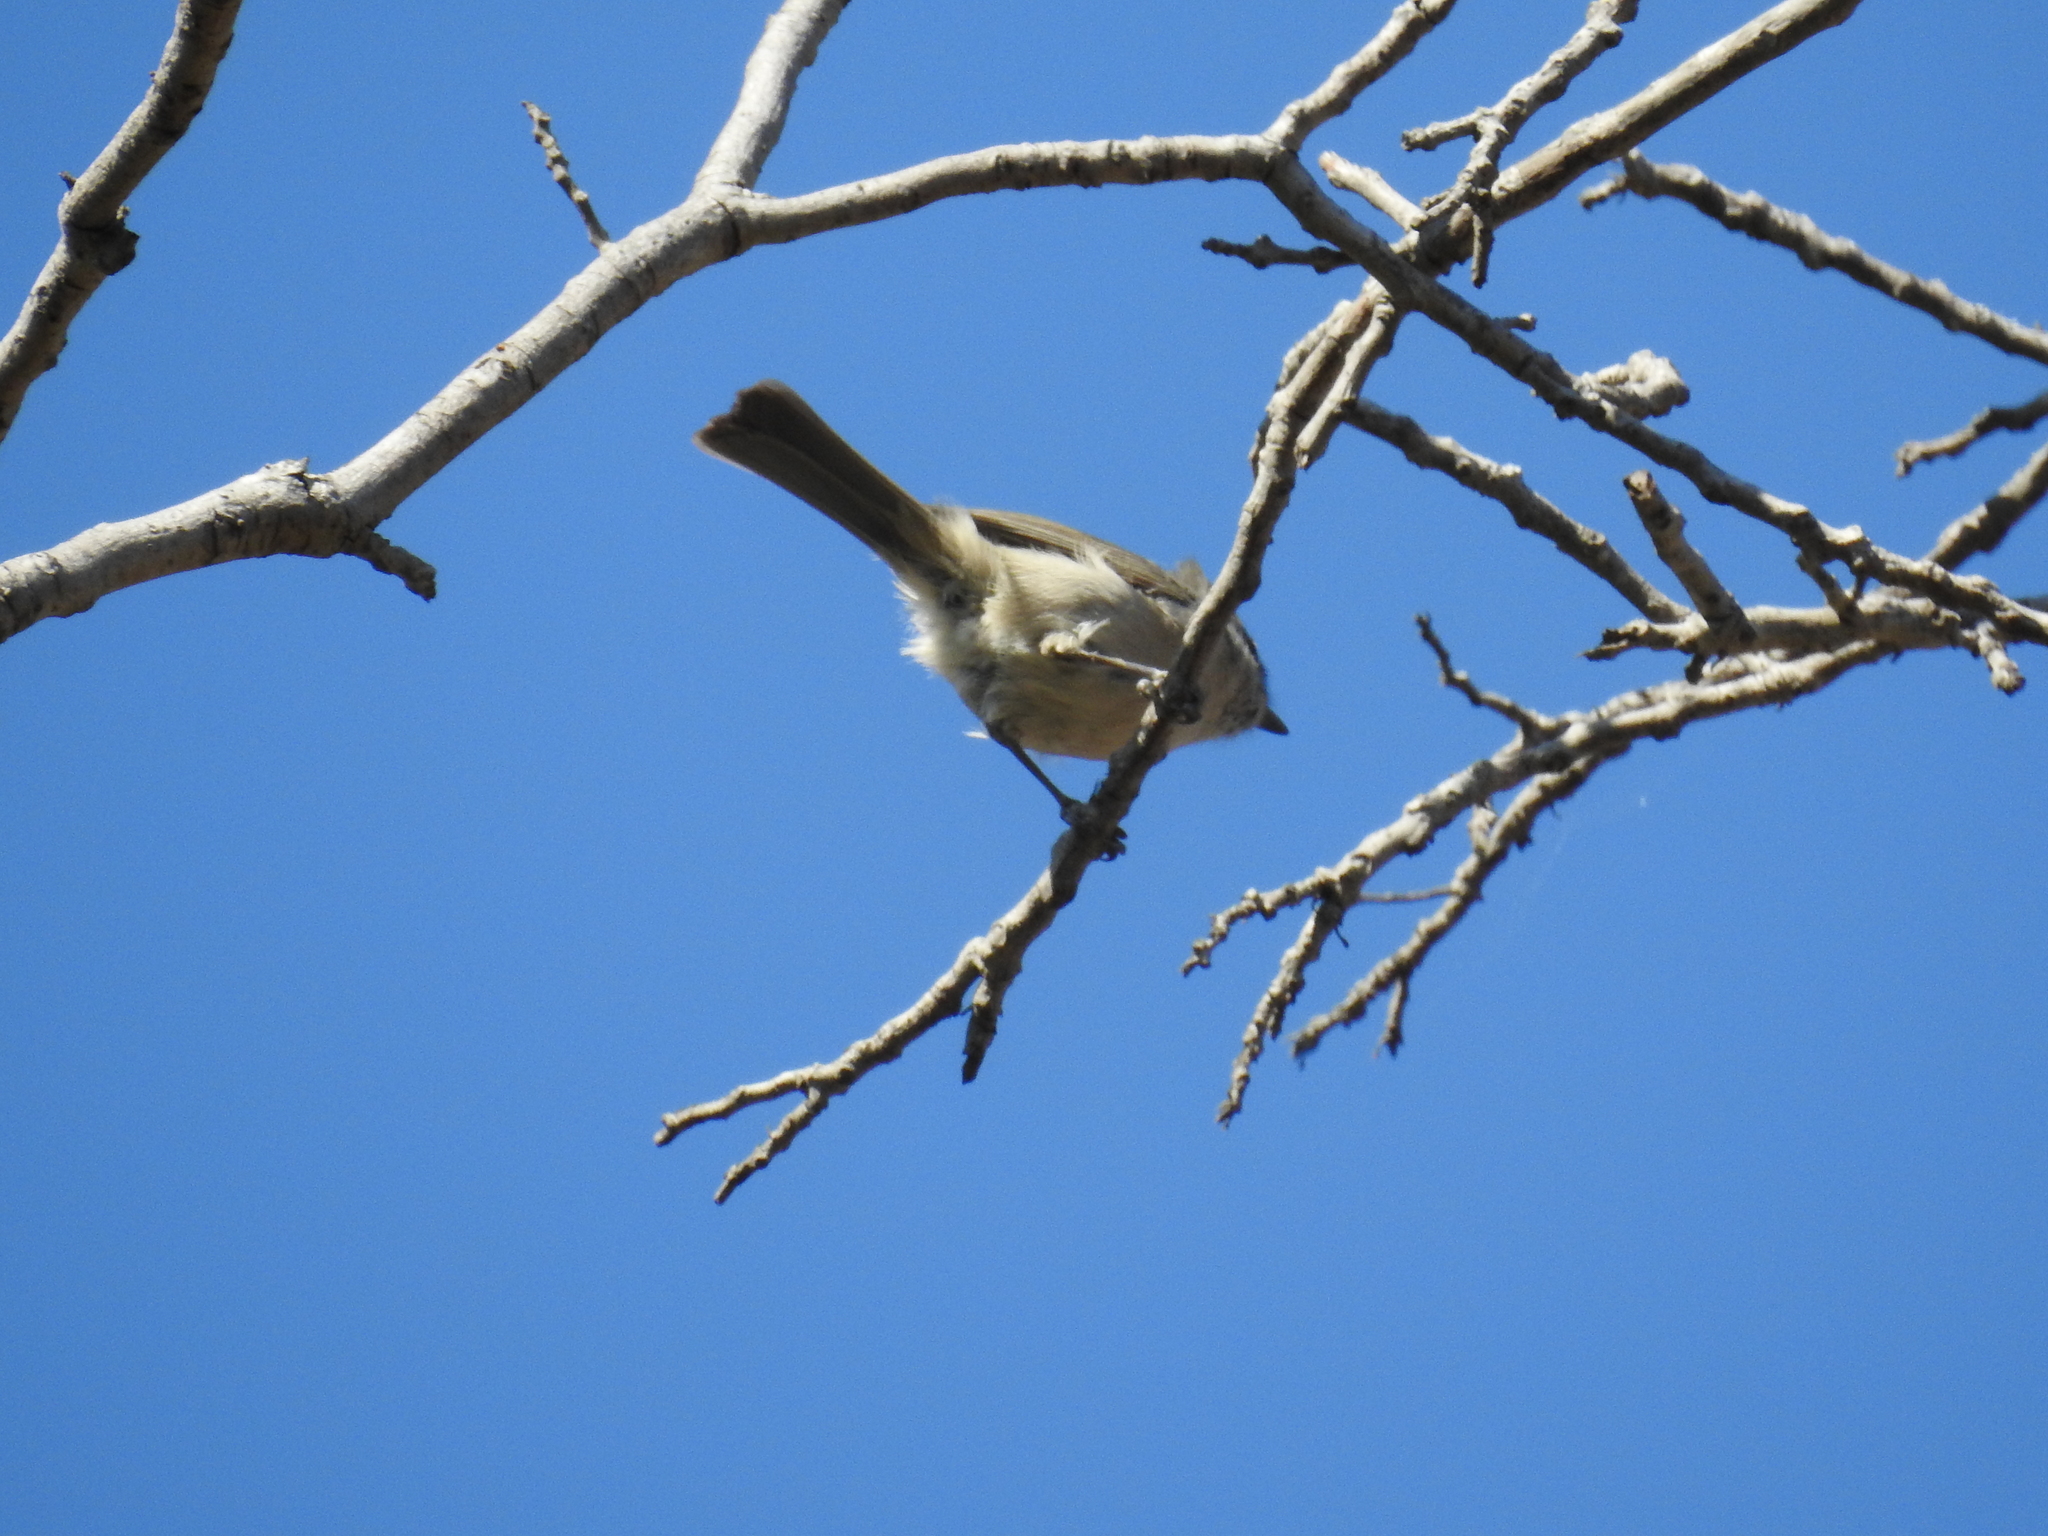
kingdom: Animalia
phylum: Chordata
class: Aves
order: Passeriformes
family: Paridae
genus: Baeolophus
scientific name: Baeolophus inornatus
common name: Oak titmouse
